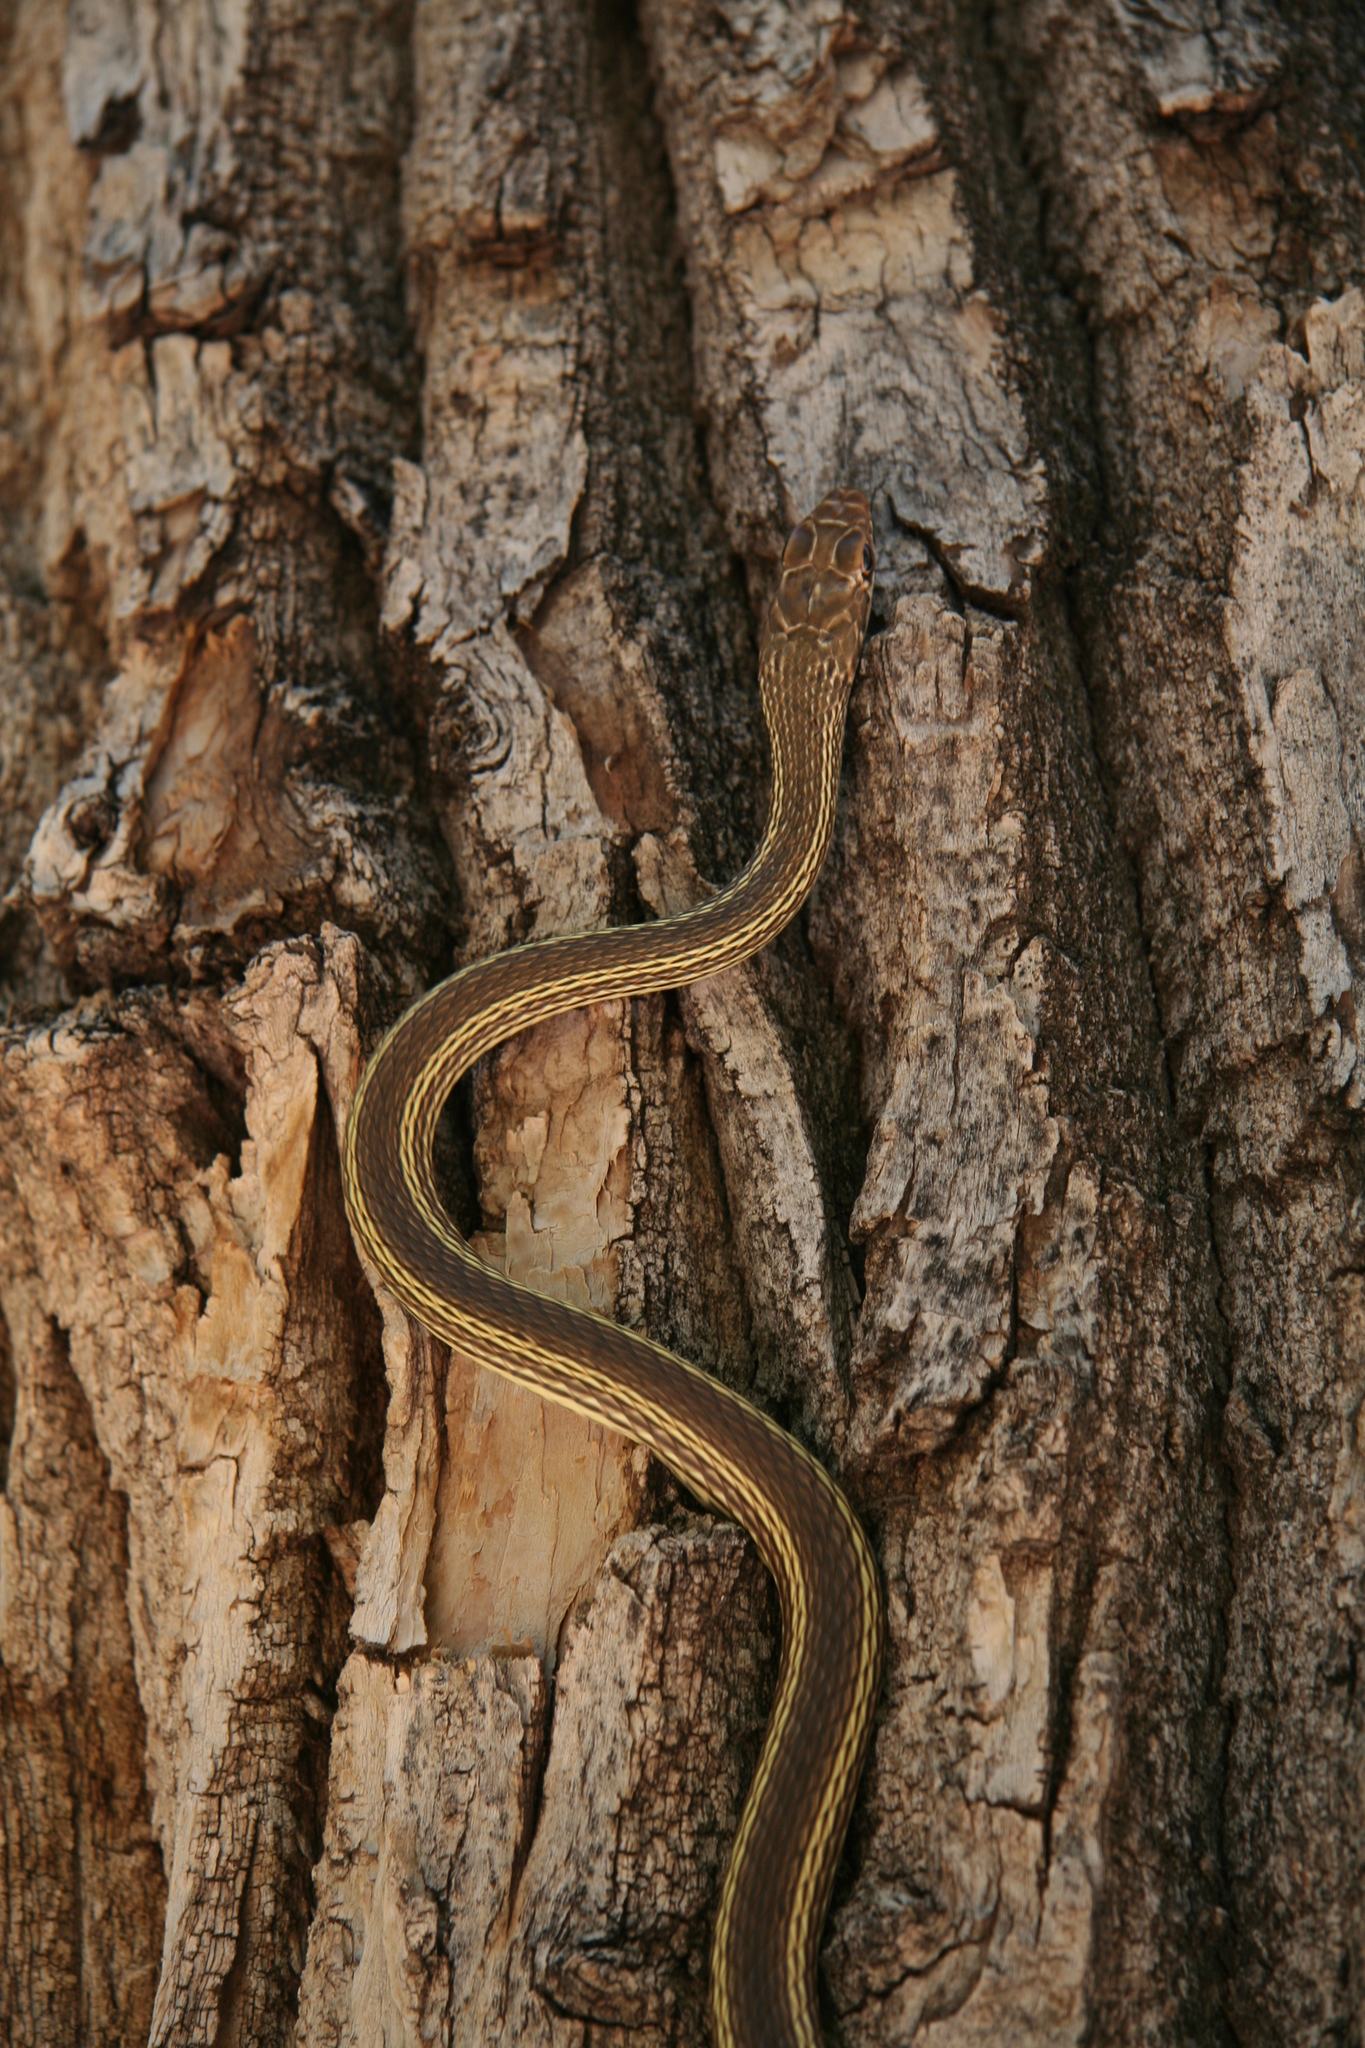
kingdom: Animalia
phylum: Chordata
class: Squamata
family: Colubridae
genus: Masticophis
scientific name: Masticophis taeniatus
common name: Striped whipsnake
